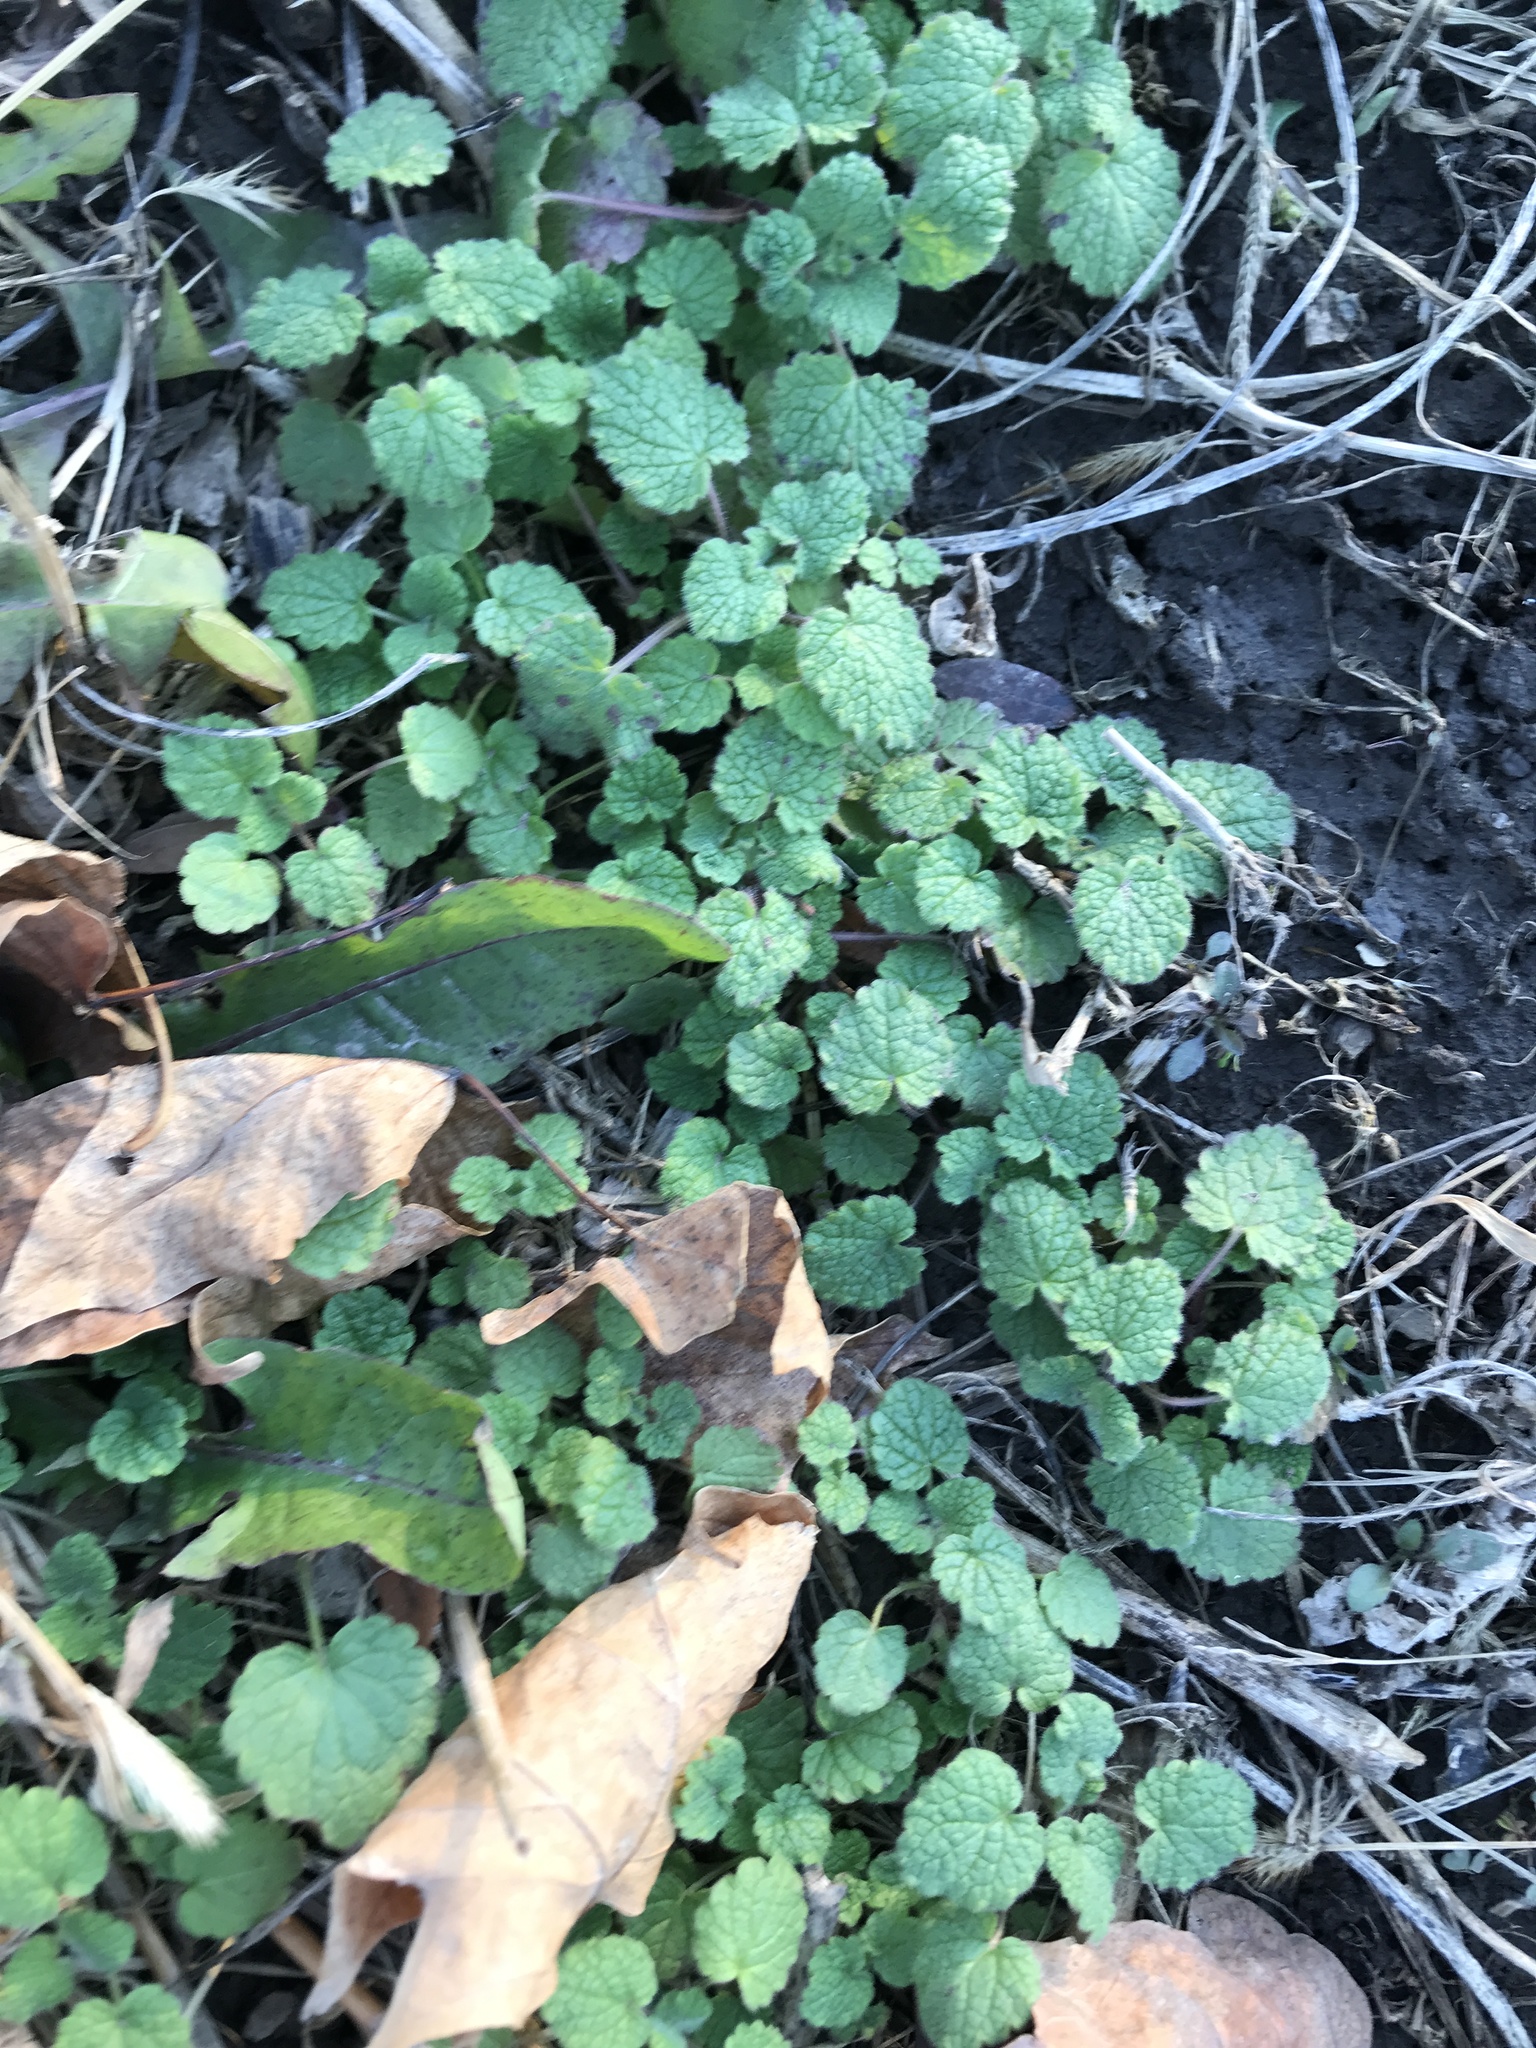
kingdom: Plantae
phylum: Tracheophyta
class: Magnoliopsida
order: Lamiales
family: Lamiaceae
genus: Lamium
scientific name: Lamium purpureum
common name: Red dead-nettle
